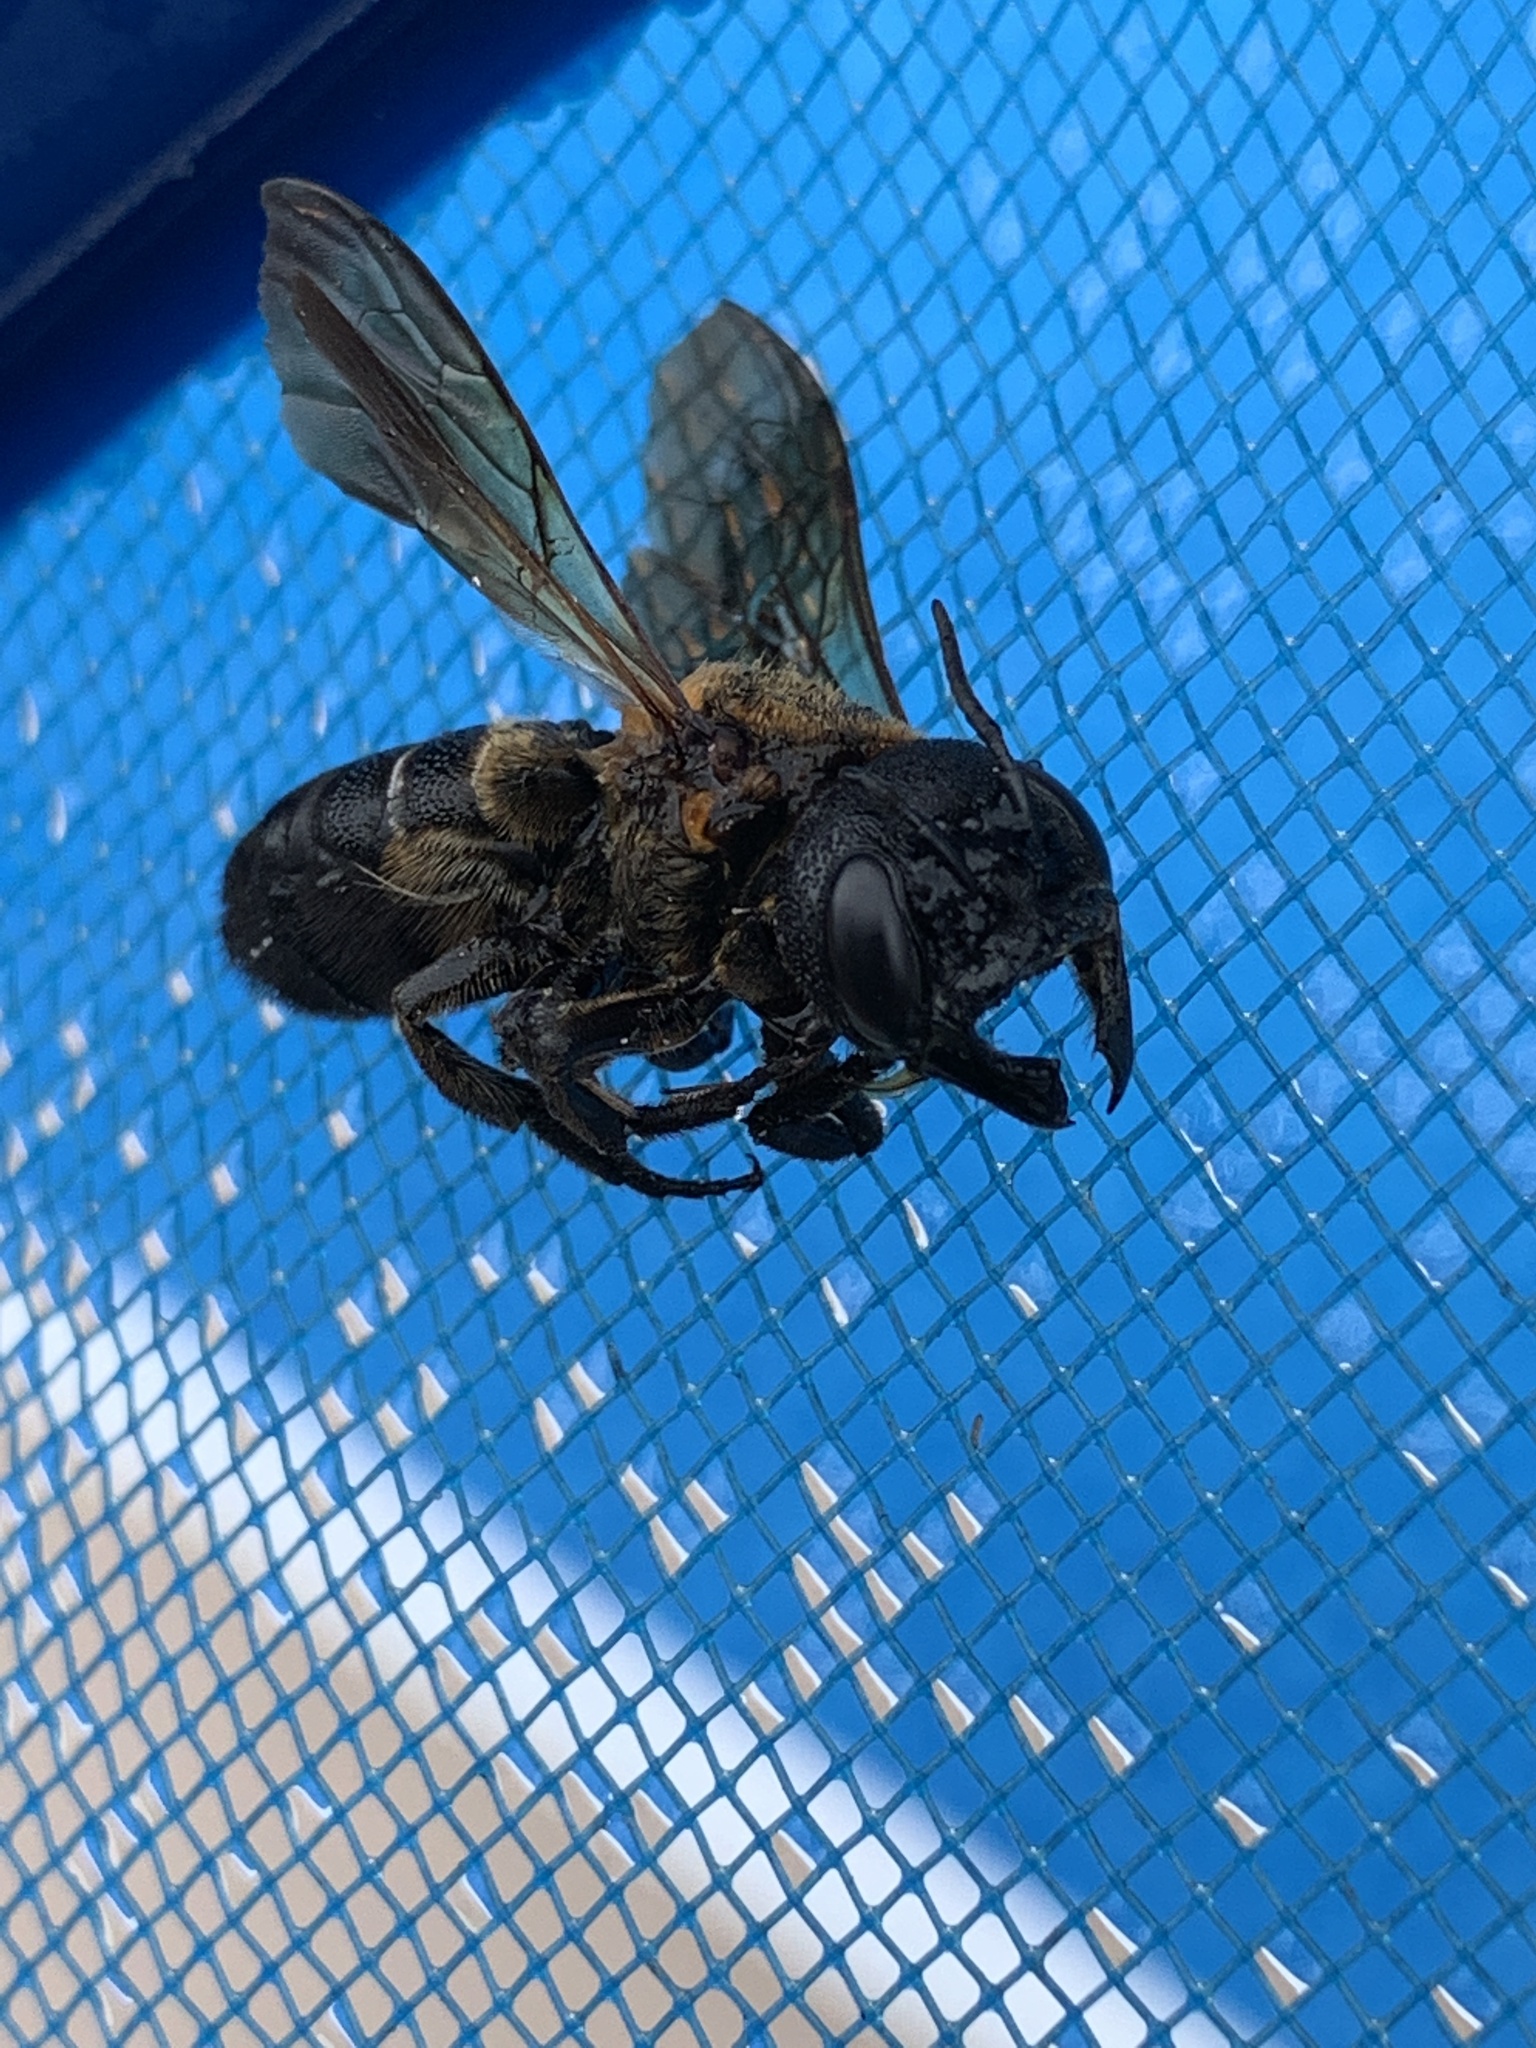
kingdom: Animalia
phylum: Arthropoda
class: Insecta
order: Hymenoptera
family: Megachilidae
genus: Megachile
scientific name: Megachile sculpturalis
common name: Sculptured resin bee
